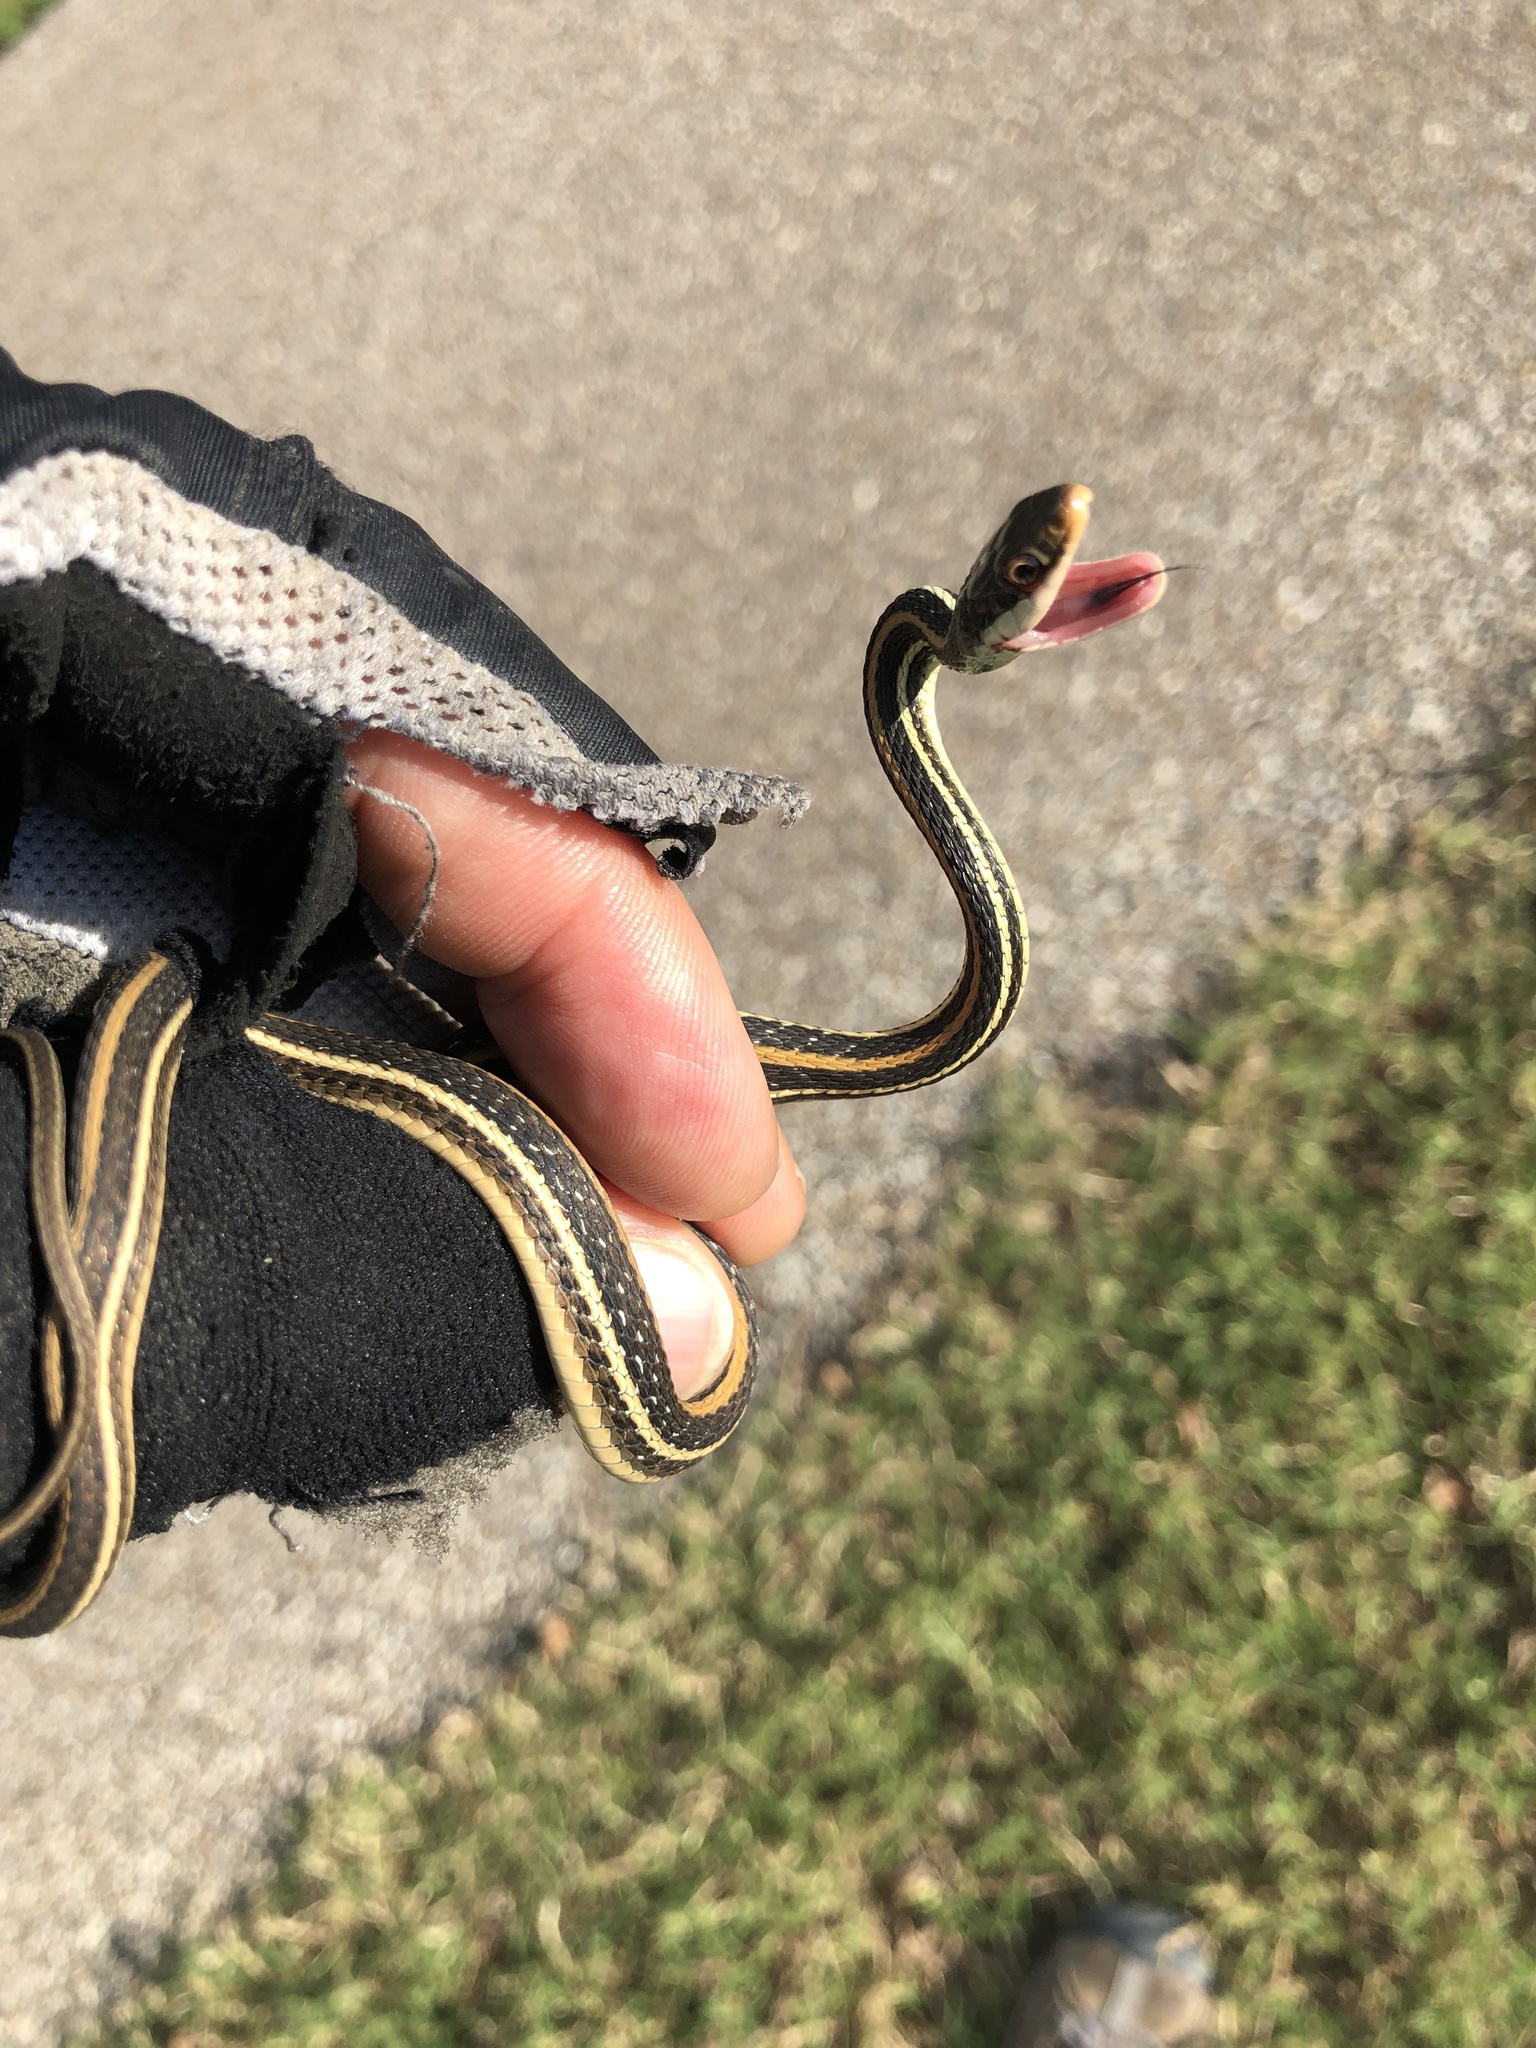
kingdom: Animalia
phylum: Chordata
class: Squamata
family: Colubridae
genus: Thamnophis
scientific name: Thamnophis proximus
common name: Western ribbon snake
